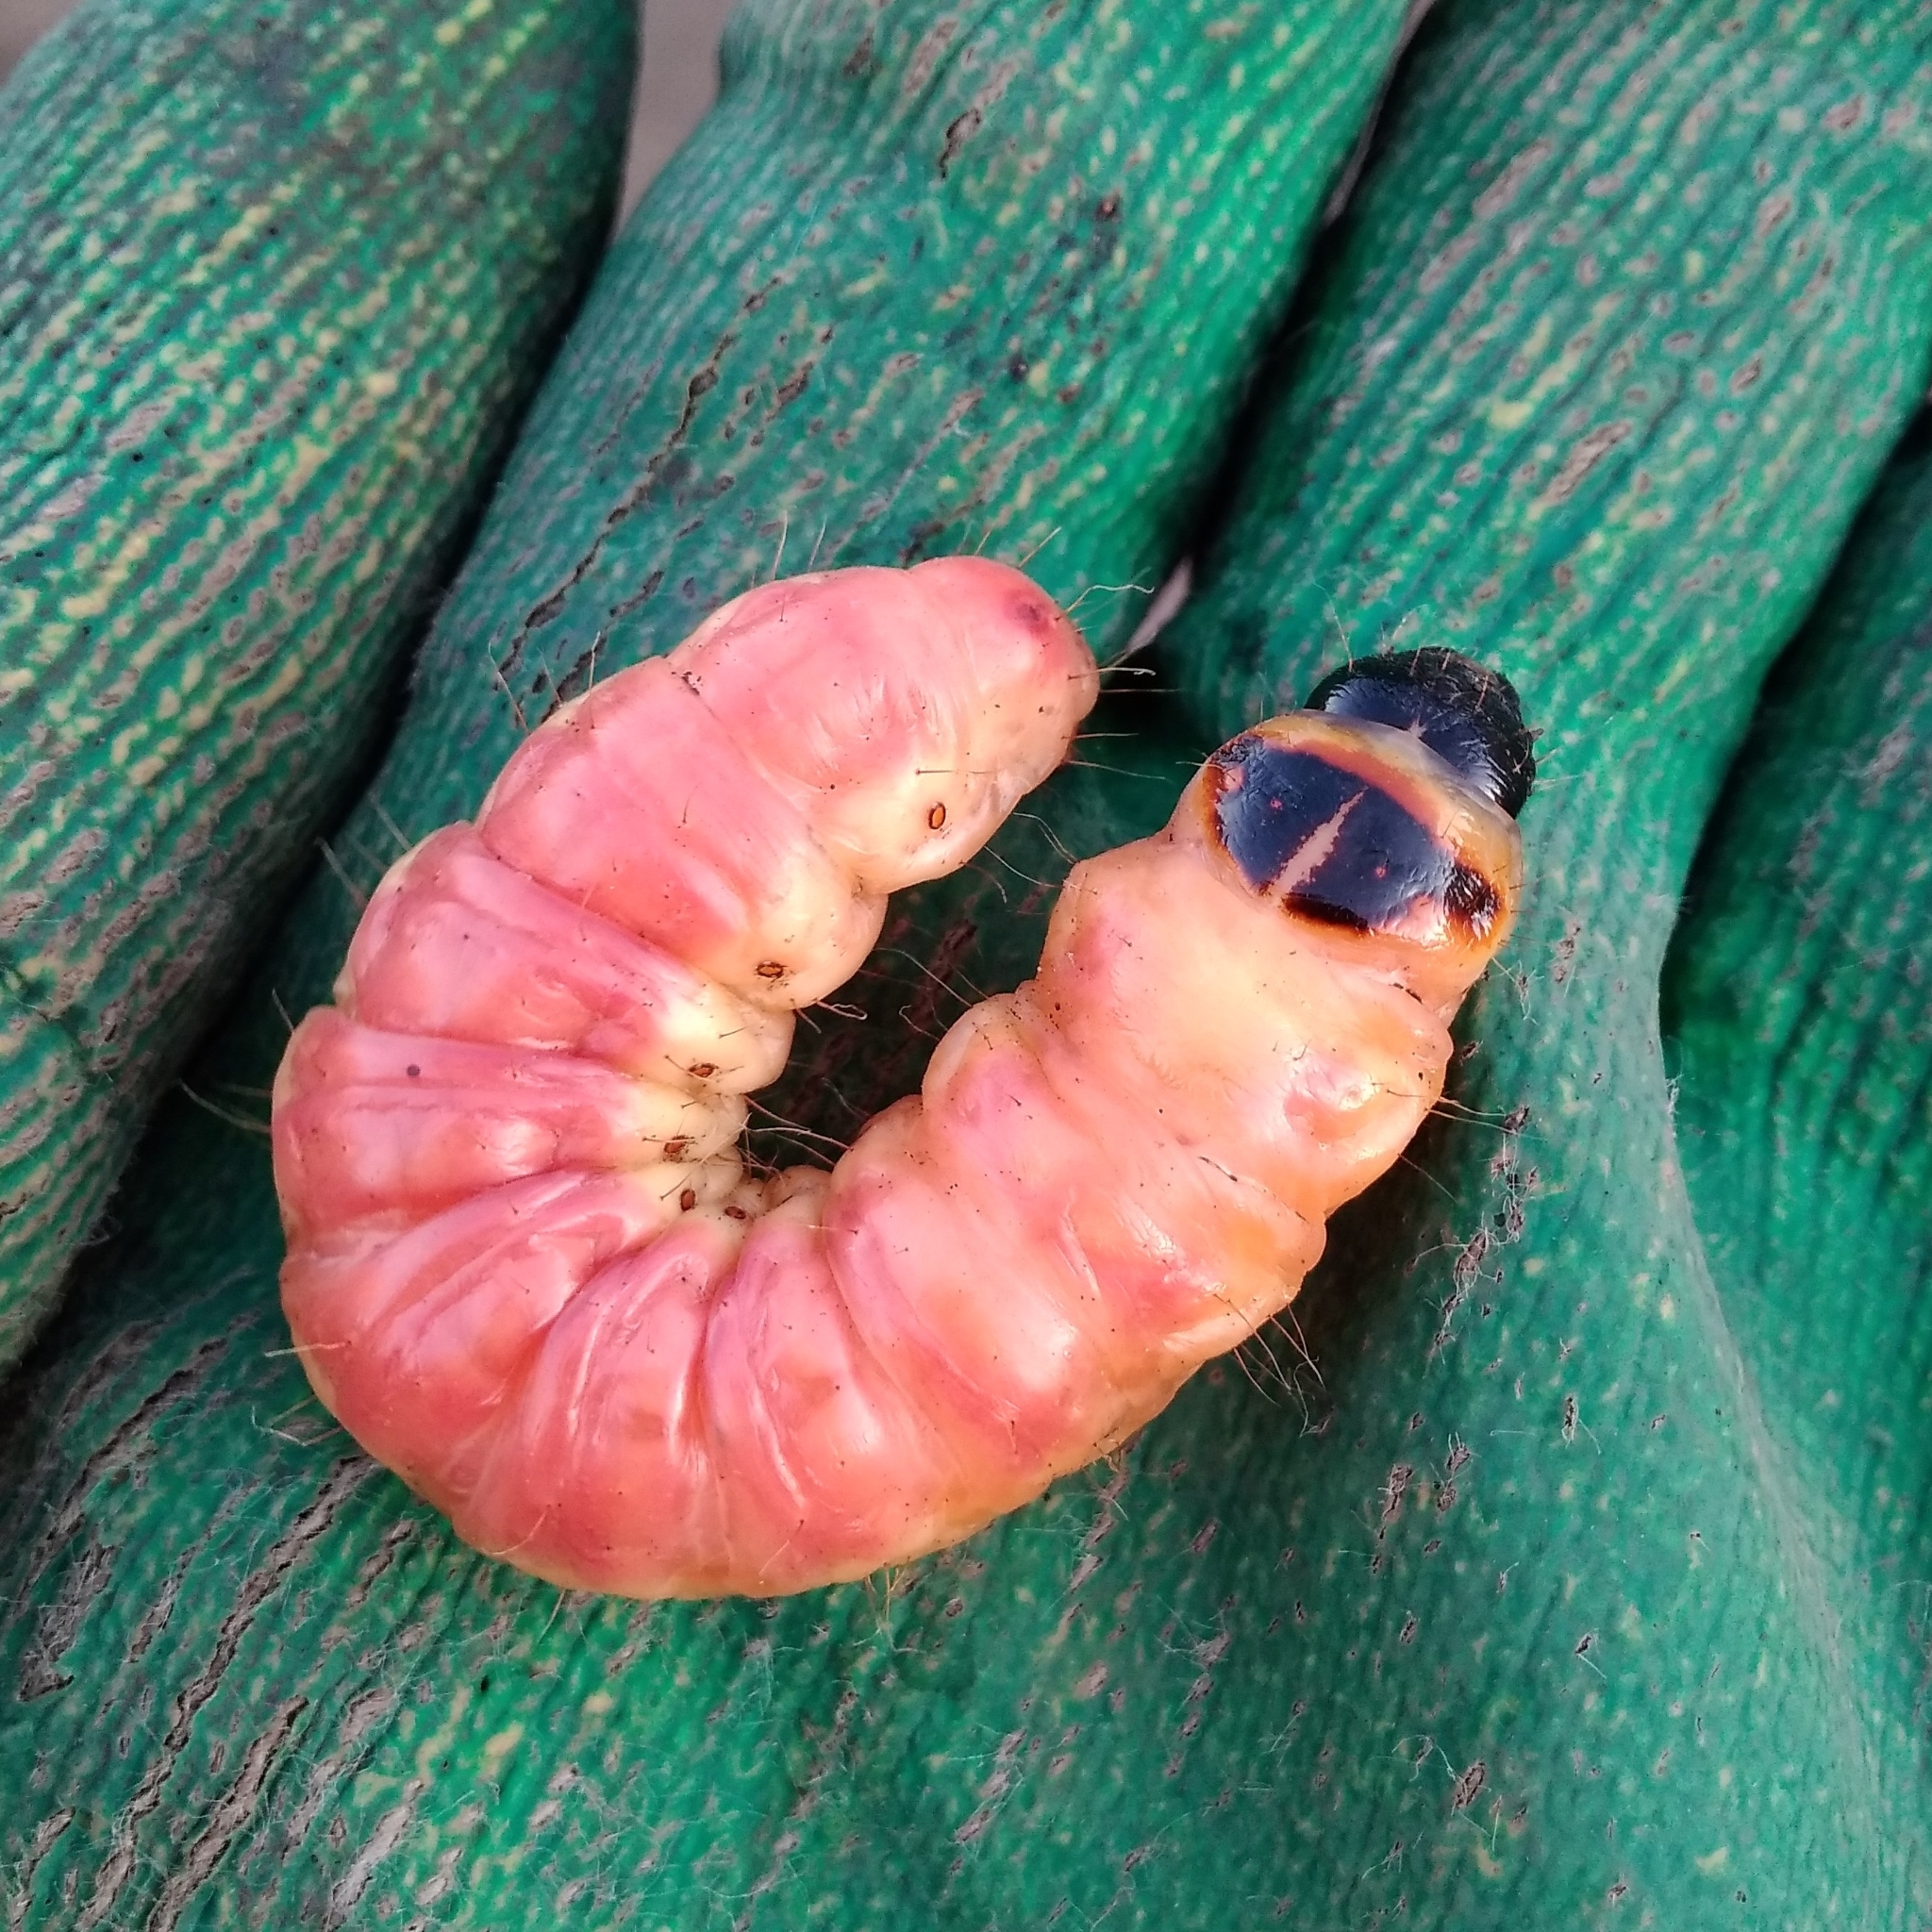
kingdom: Animalia
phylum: Arthropoda
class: Insecta
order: Lepidoptera
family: Cossidae
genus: Cossus
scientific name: Cossus cossus
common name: Goat moth
